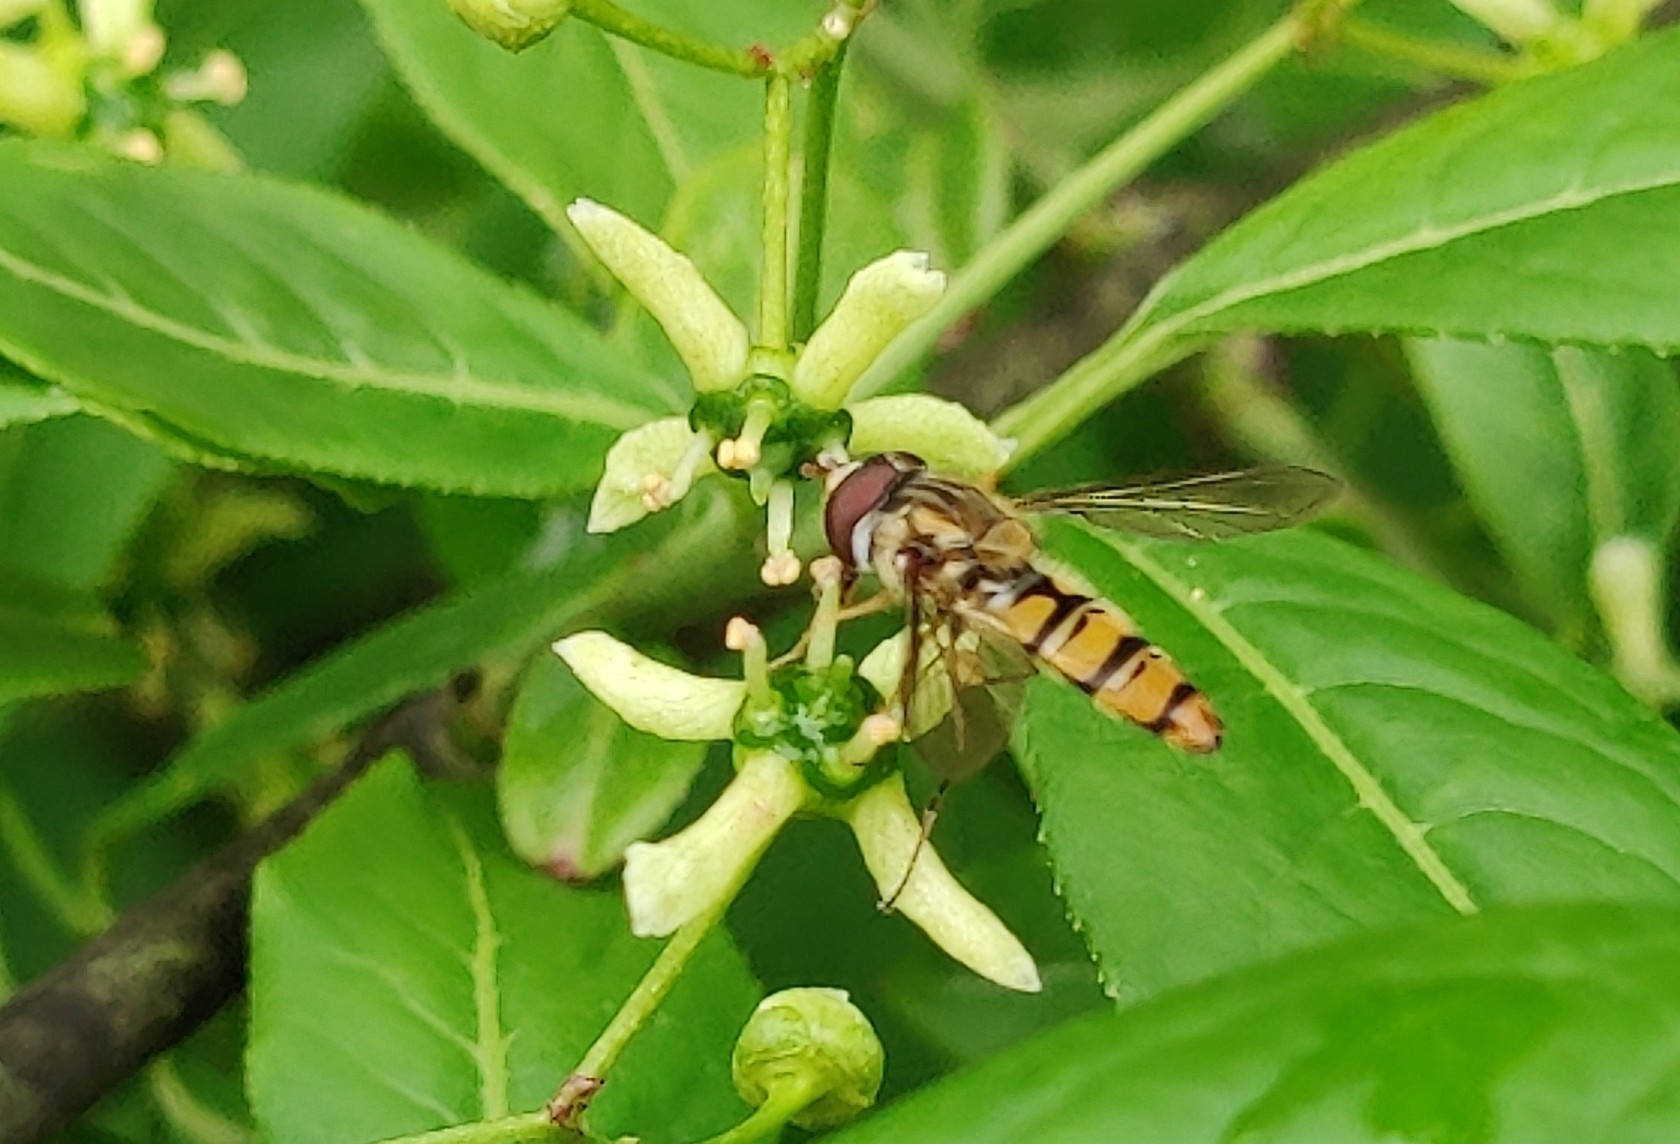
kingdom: Animalia
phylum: Arthropoda
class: Insecta
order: Diptera
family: Syrphidae
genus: Episyrphus
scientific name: Episyrphus balteatus
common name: Marmalade hoverfly
